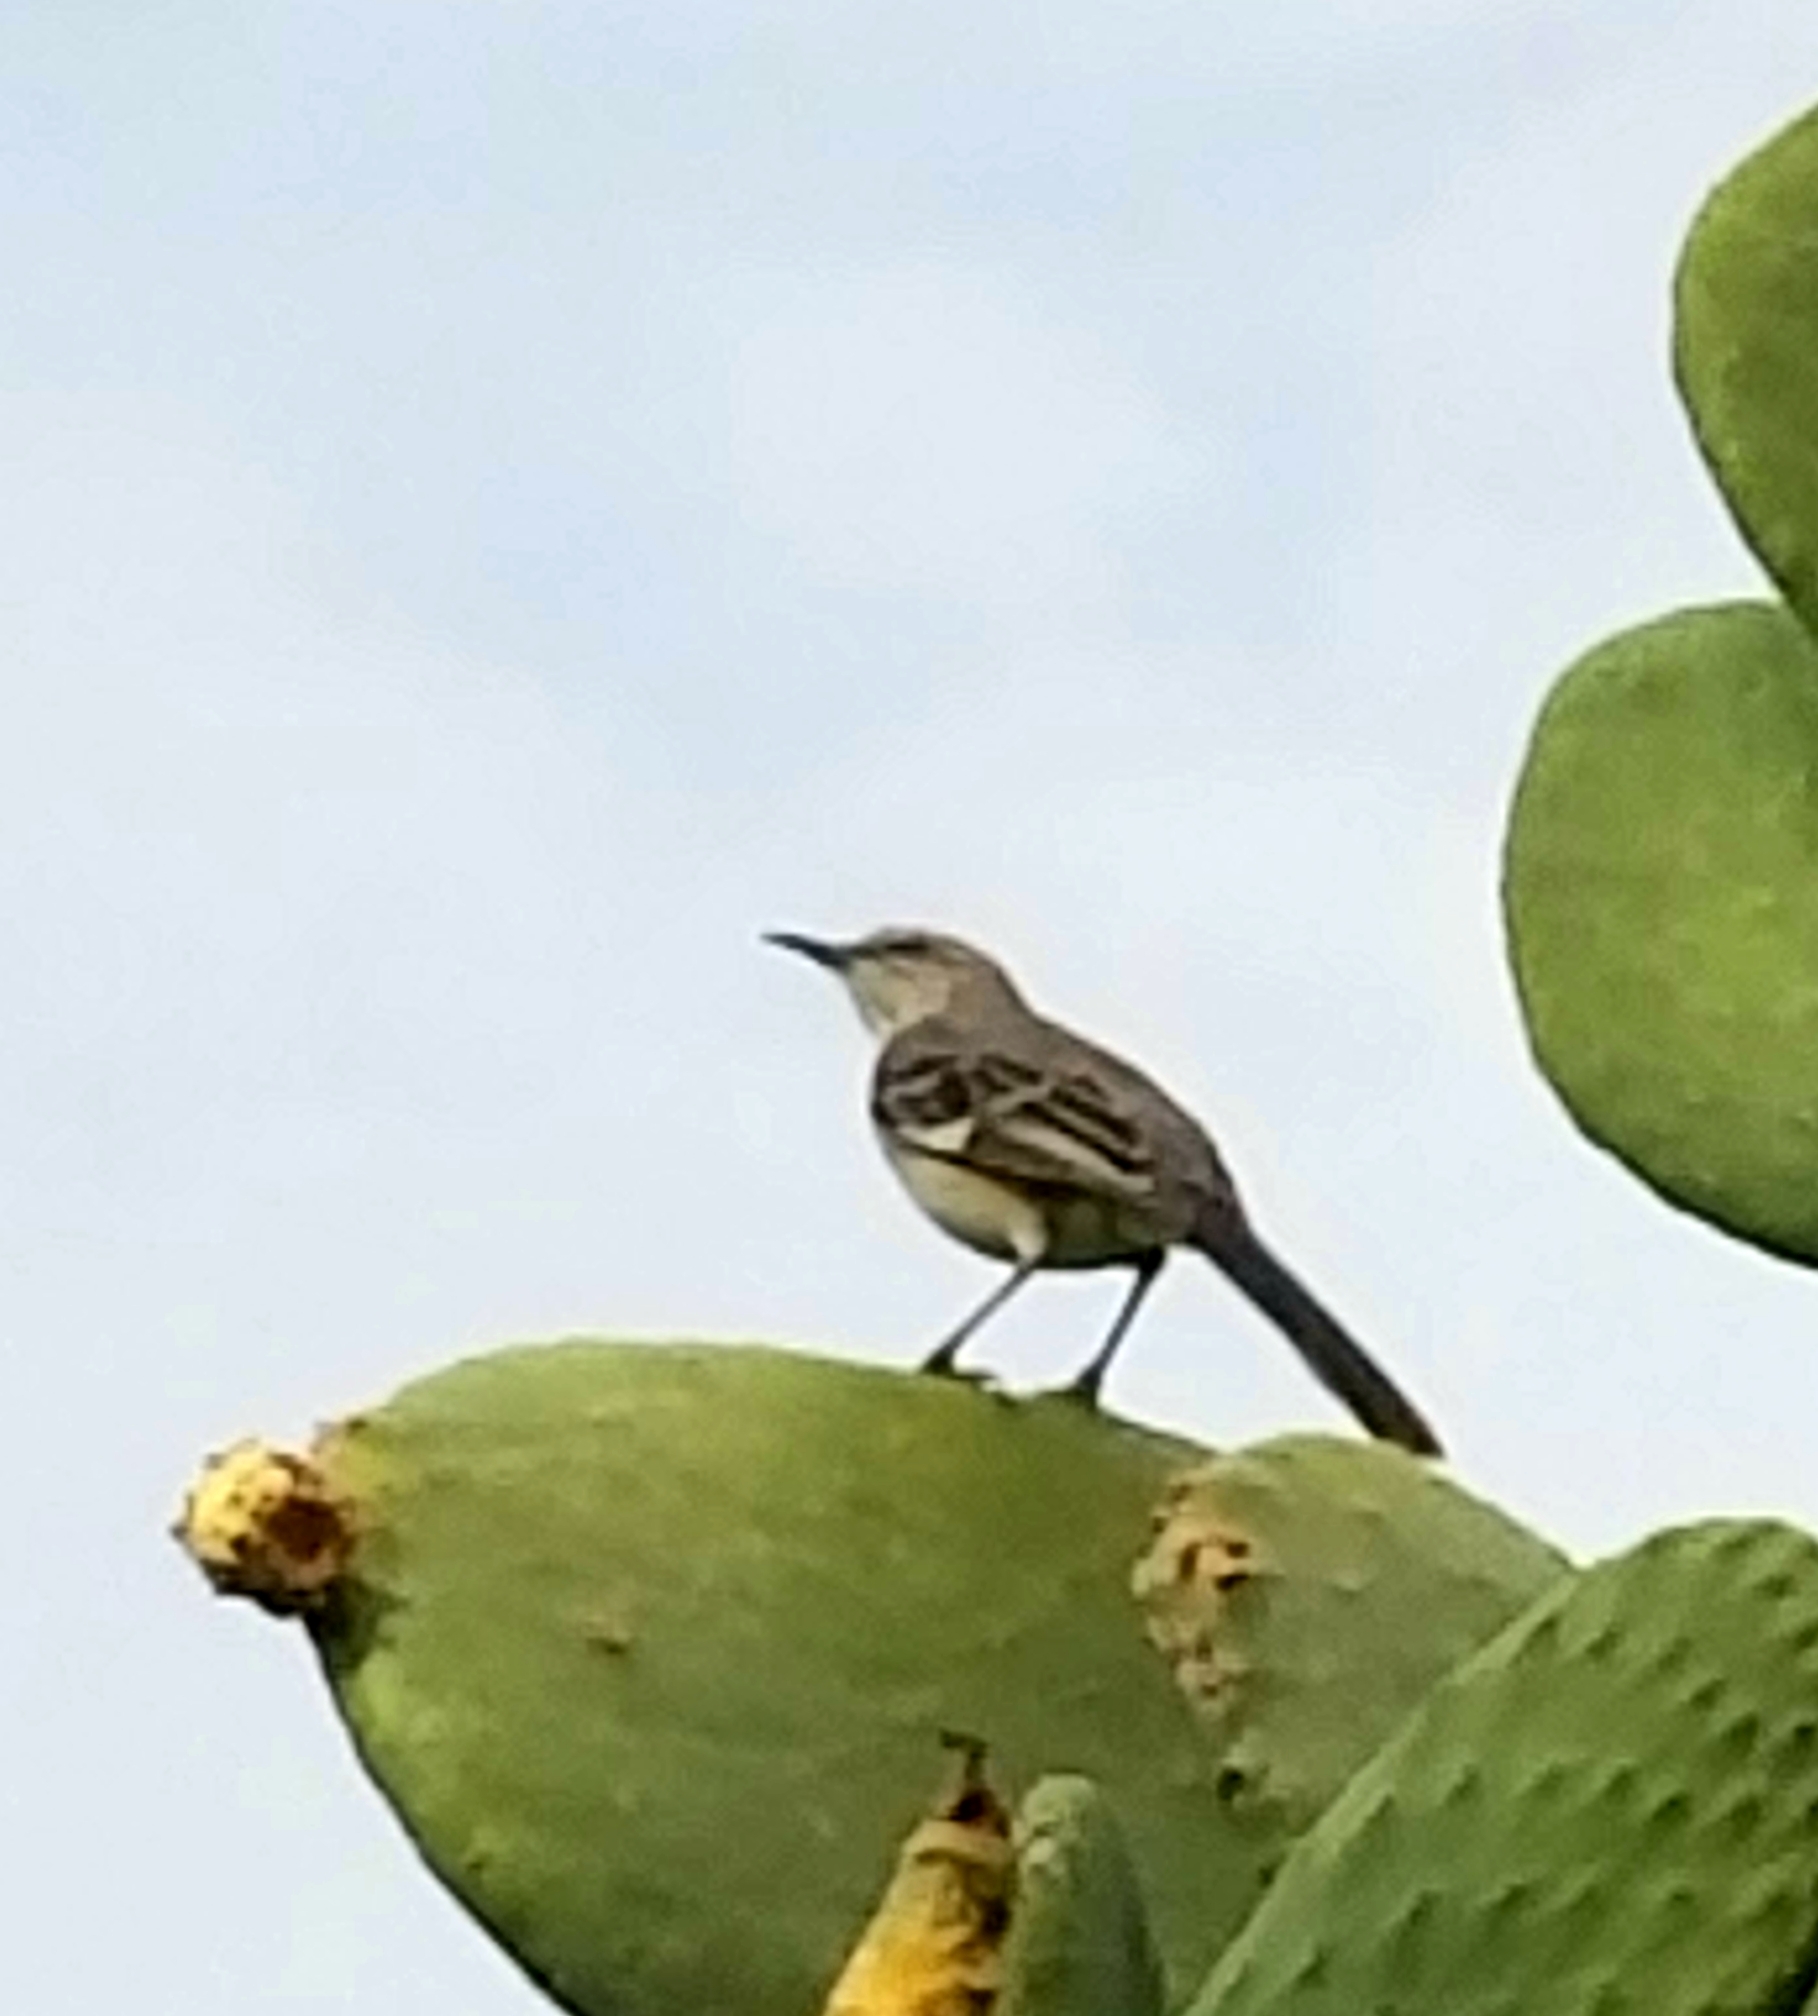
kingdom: Animalia
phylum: Chordata
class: Aves
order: Passeriformes
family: Mimidae
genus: Mimus
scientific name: Mimus polyglottos
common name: Northern mockingbird
